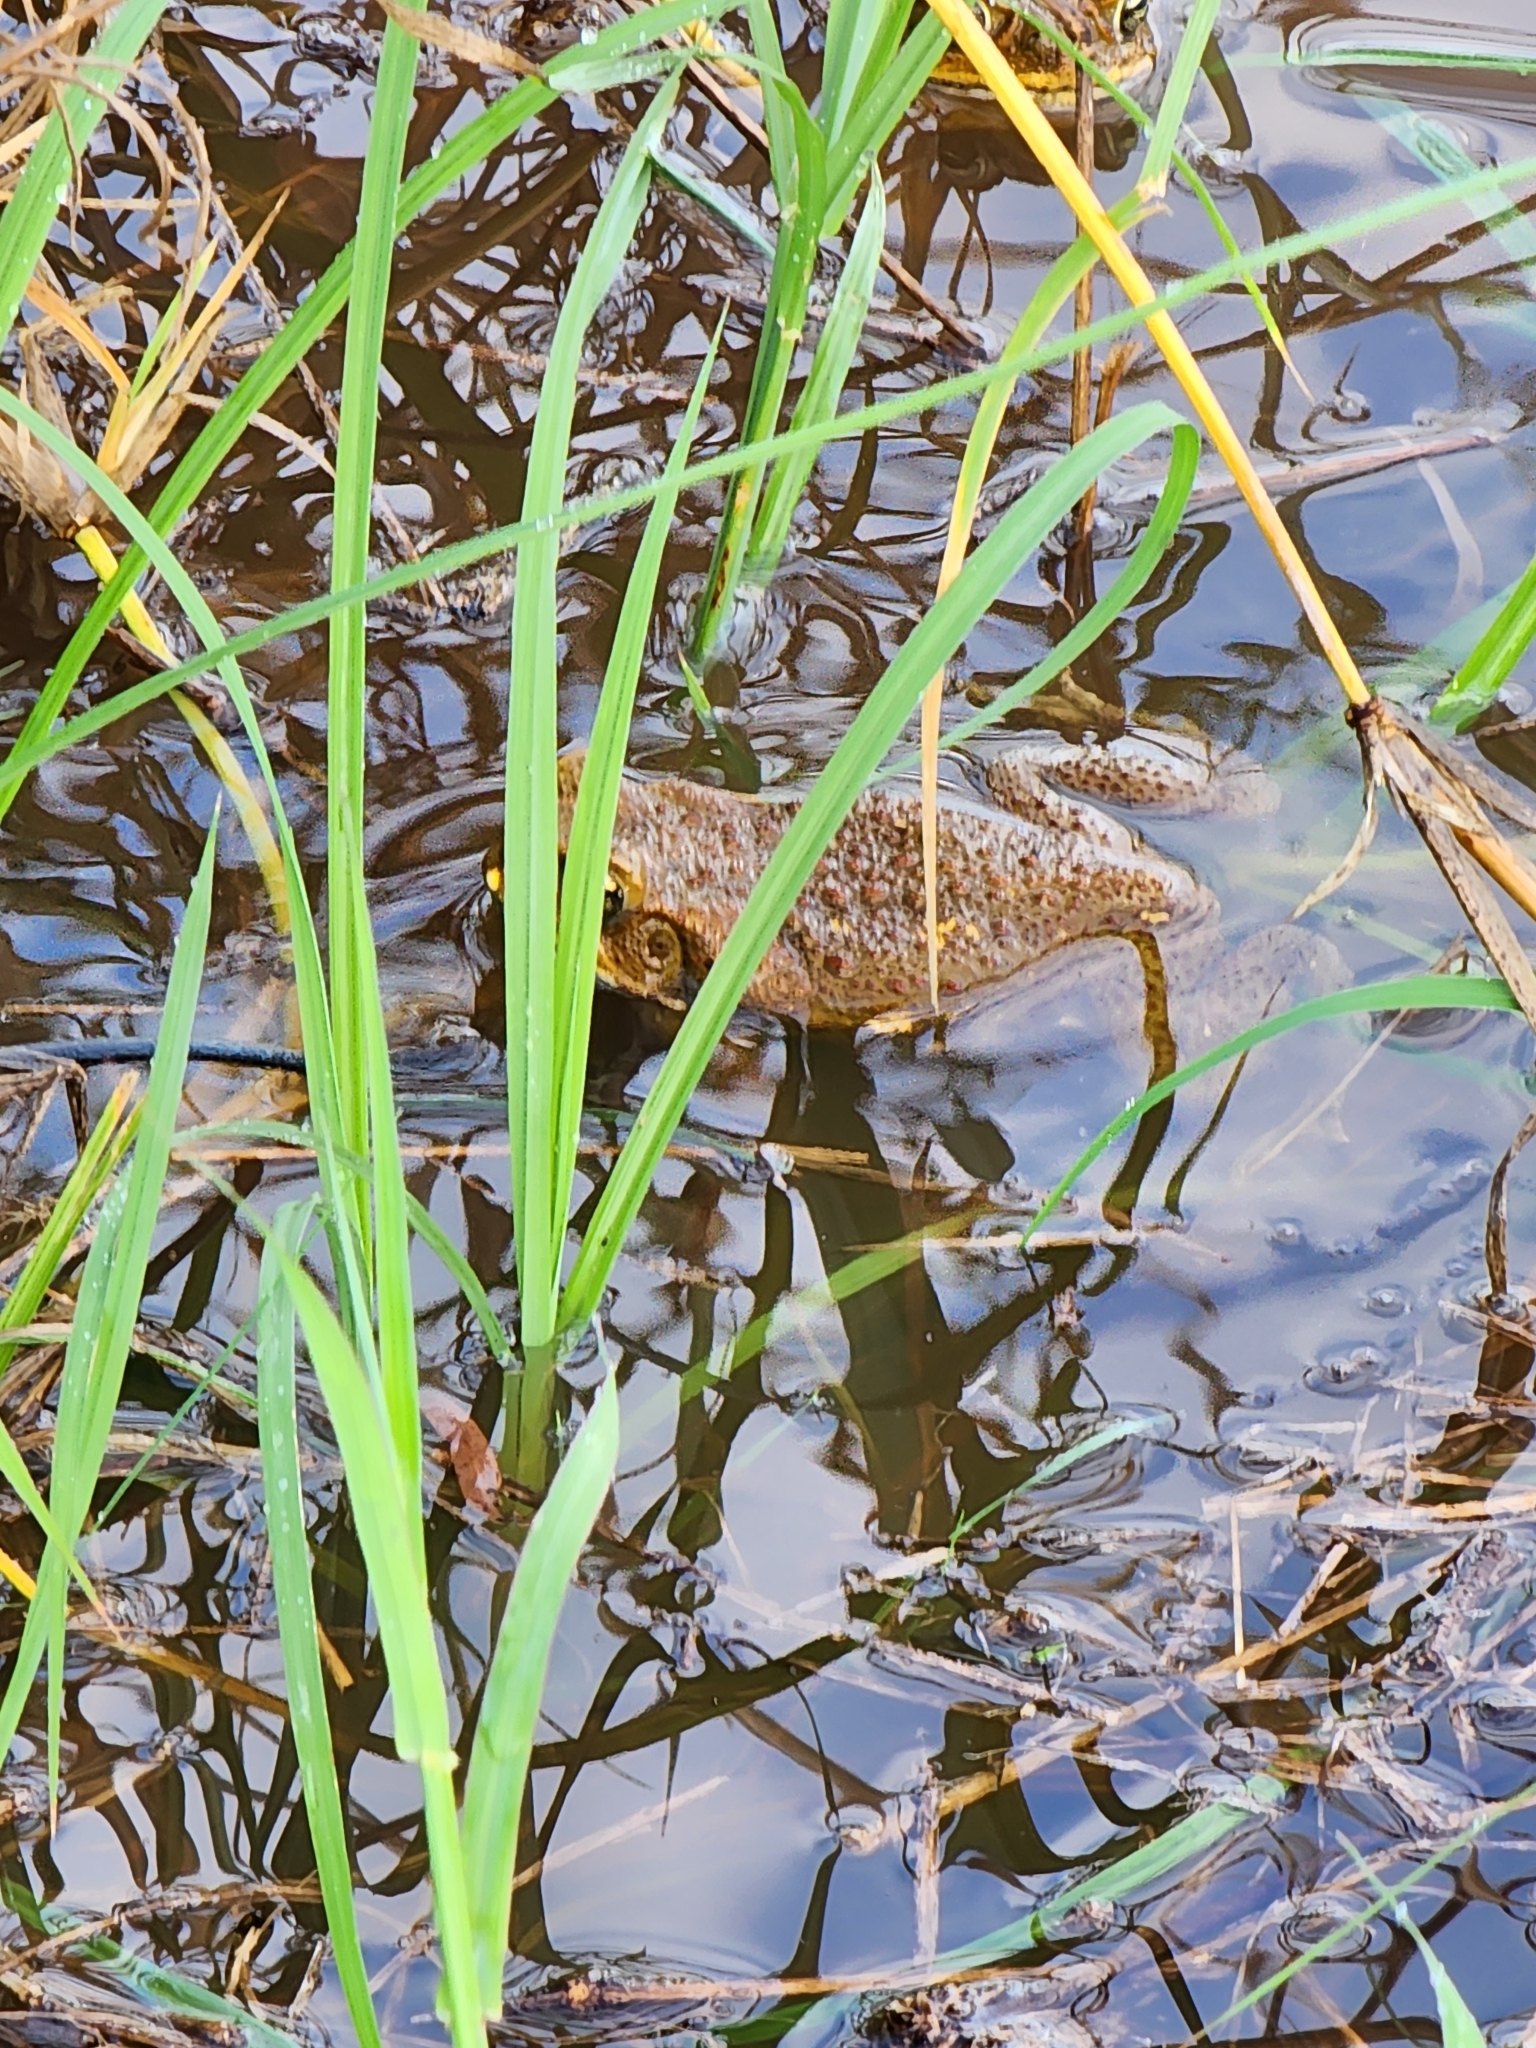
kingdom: Animalia
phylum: Chordata
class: Amphibia
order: Anura
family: Bufonidae
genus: Rhinella
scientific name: Rhinella marina
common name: Cane toad
